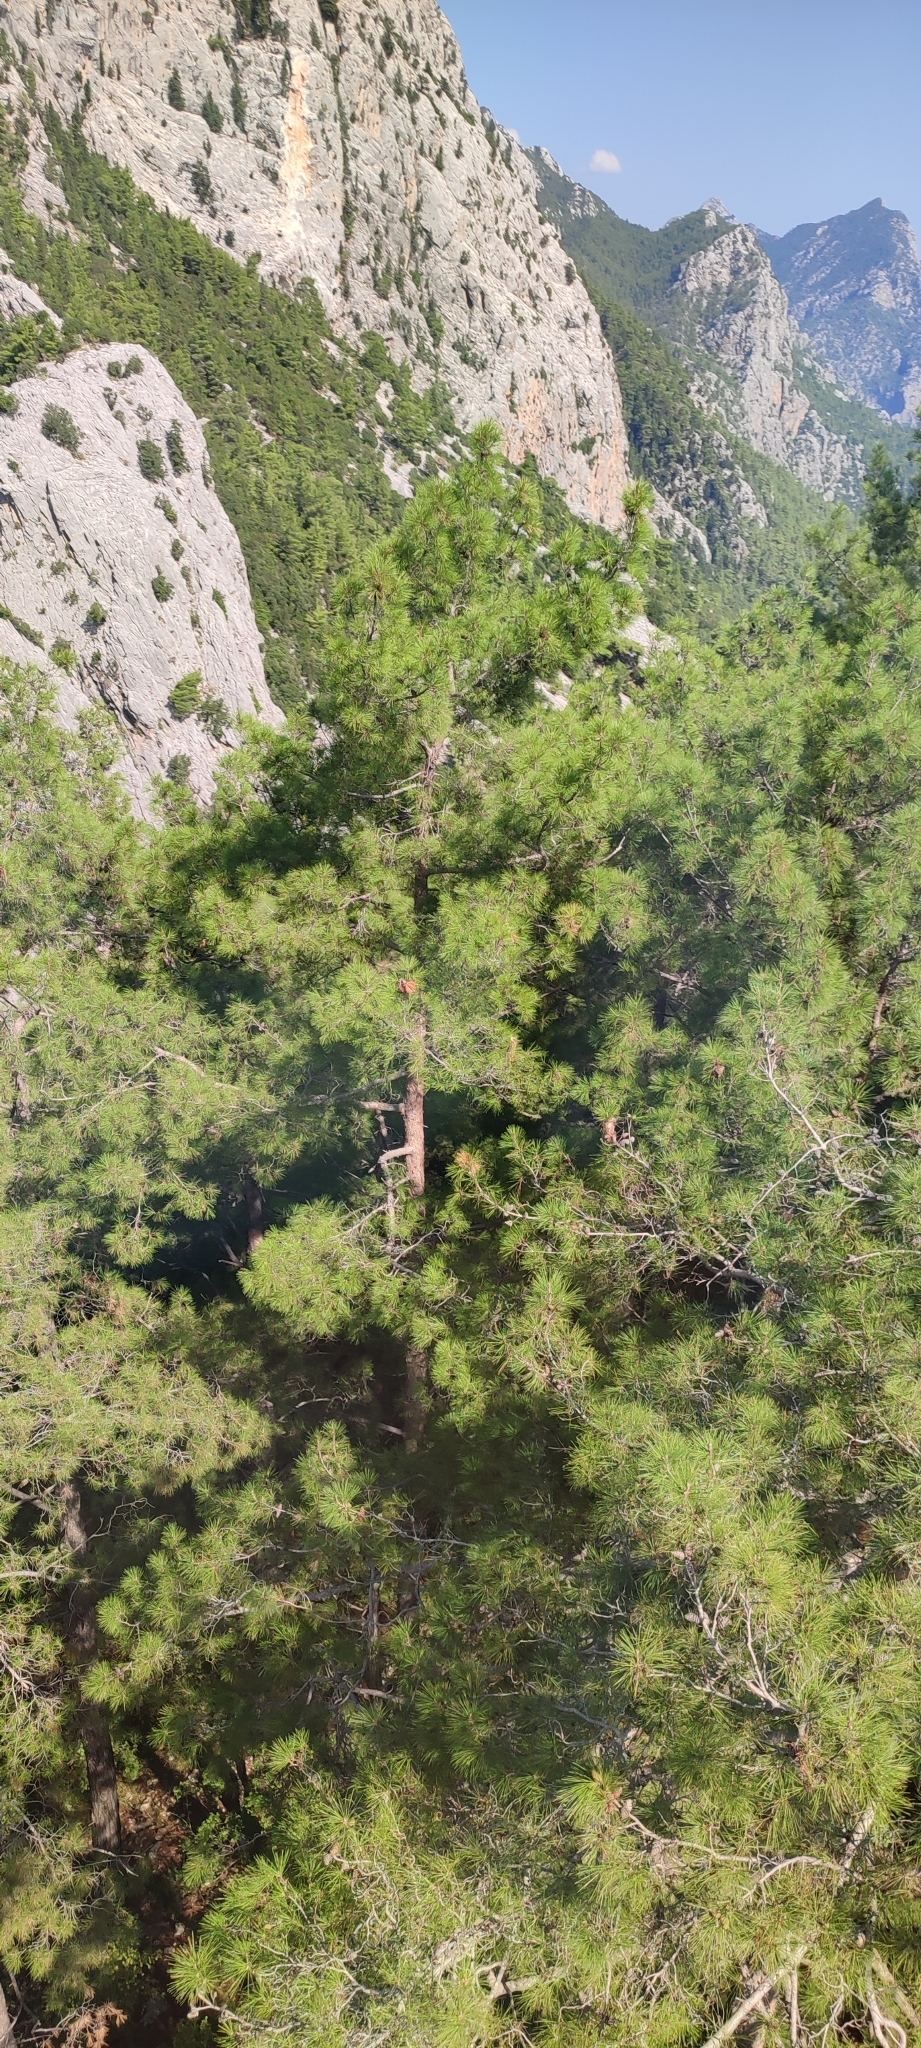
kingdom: Plantae
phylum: Tracheophyta
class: Pinopsida
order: Pinales
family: Pinaceae
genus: Pinus
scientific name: Pinus brutia
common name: Turkish pine
